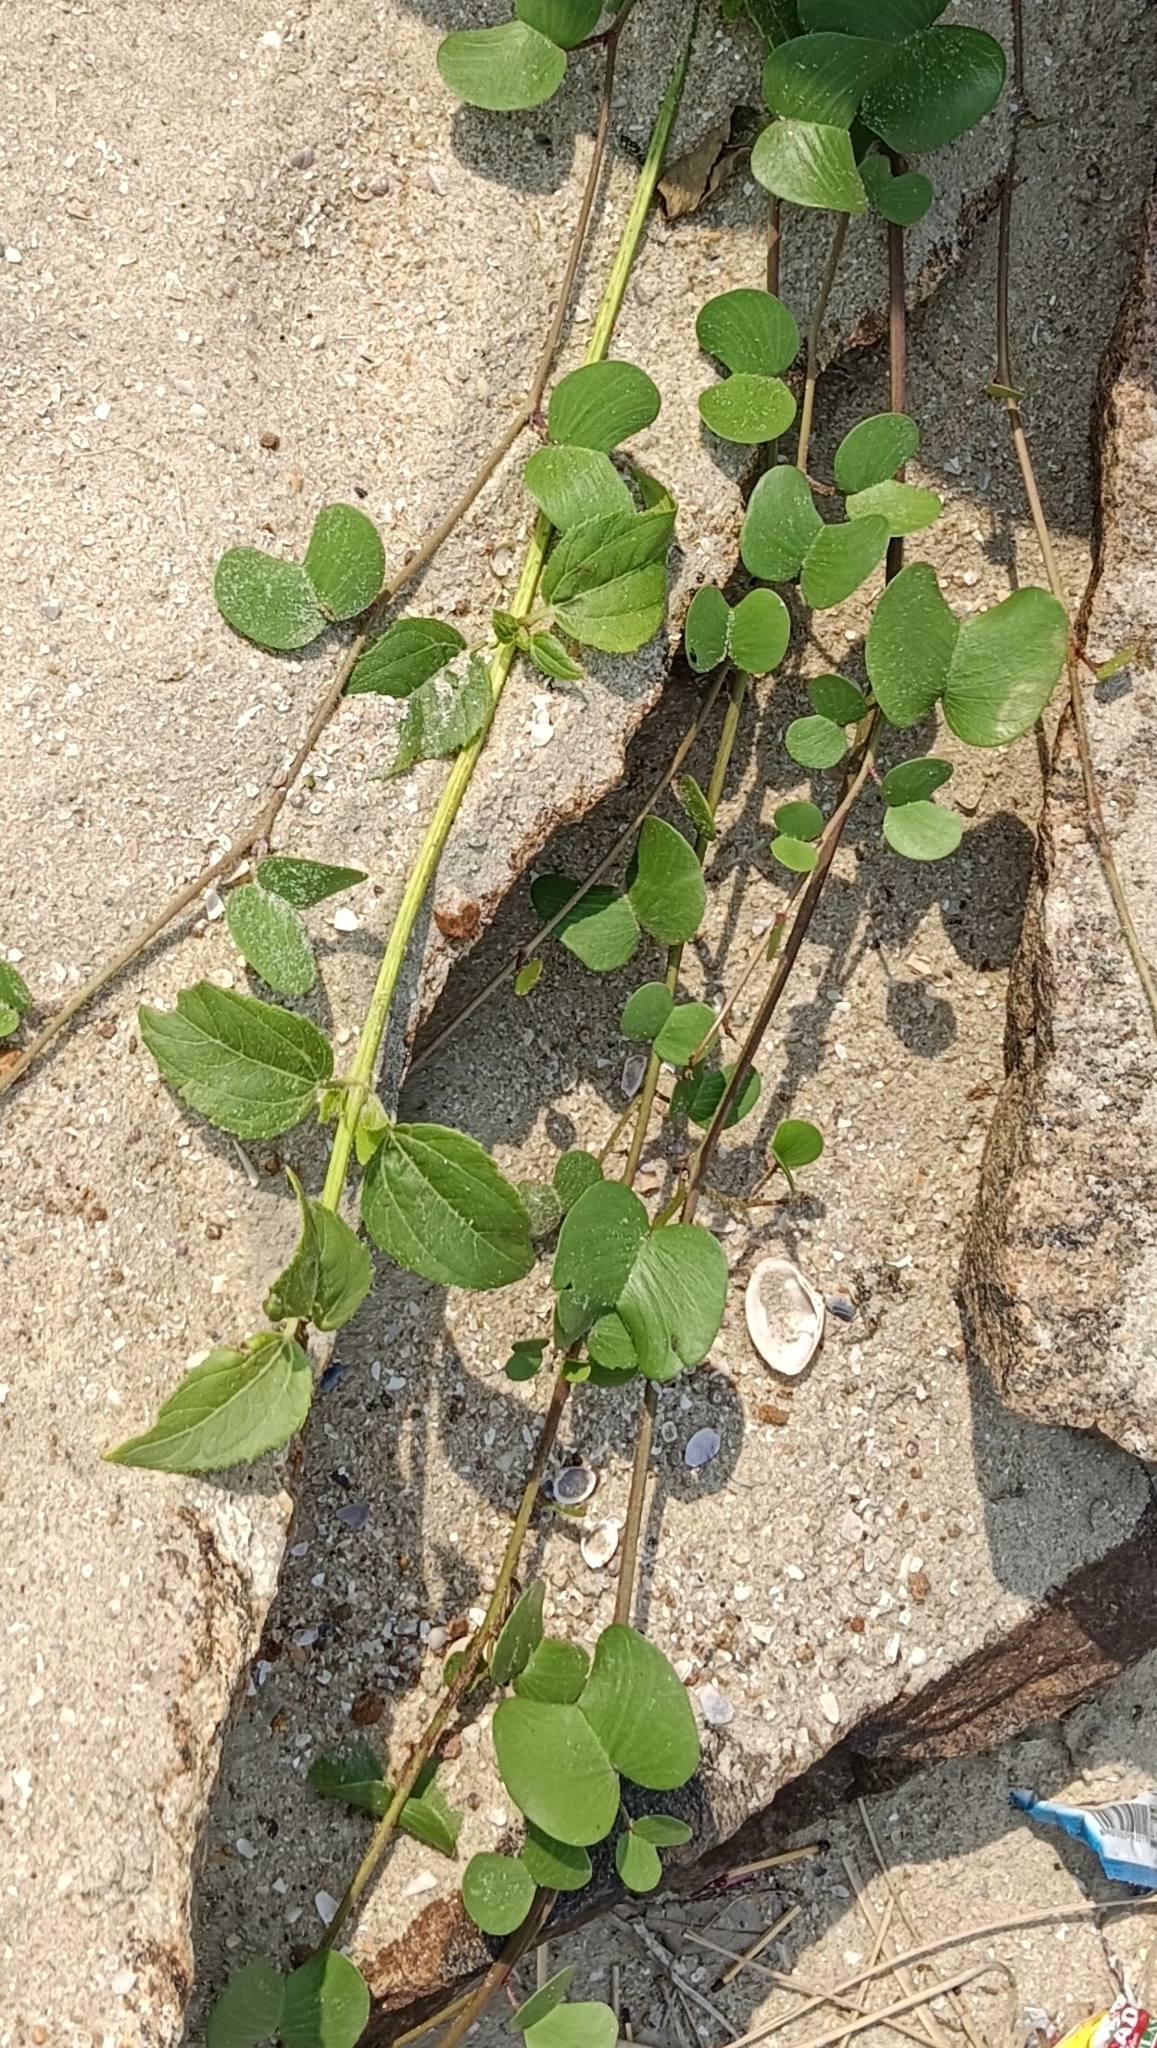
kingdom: Plantae
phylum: Tracheophyta
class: Magnoliopsida
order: Solanales
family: Convolvulaceae
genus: Ipomoea
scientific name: Ipomoea pes-caprae
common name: Beach morning glory
